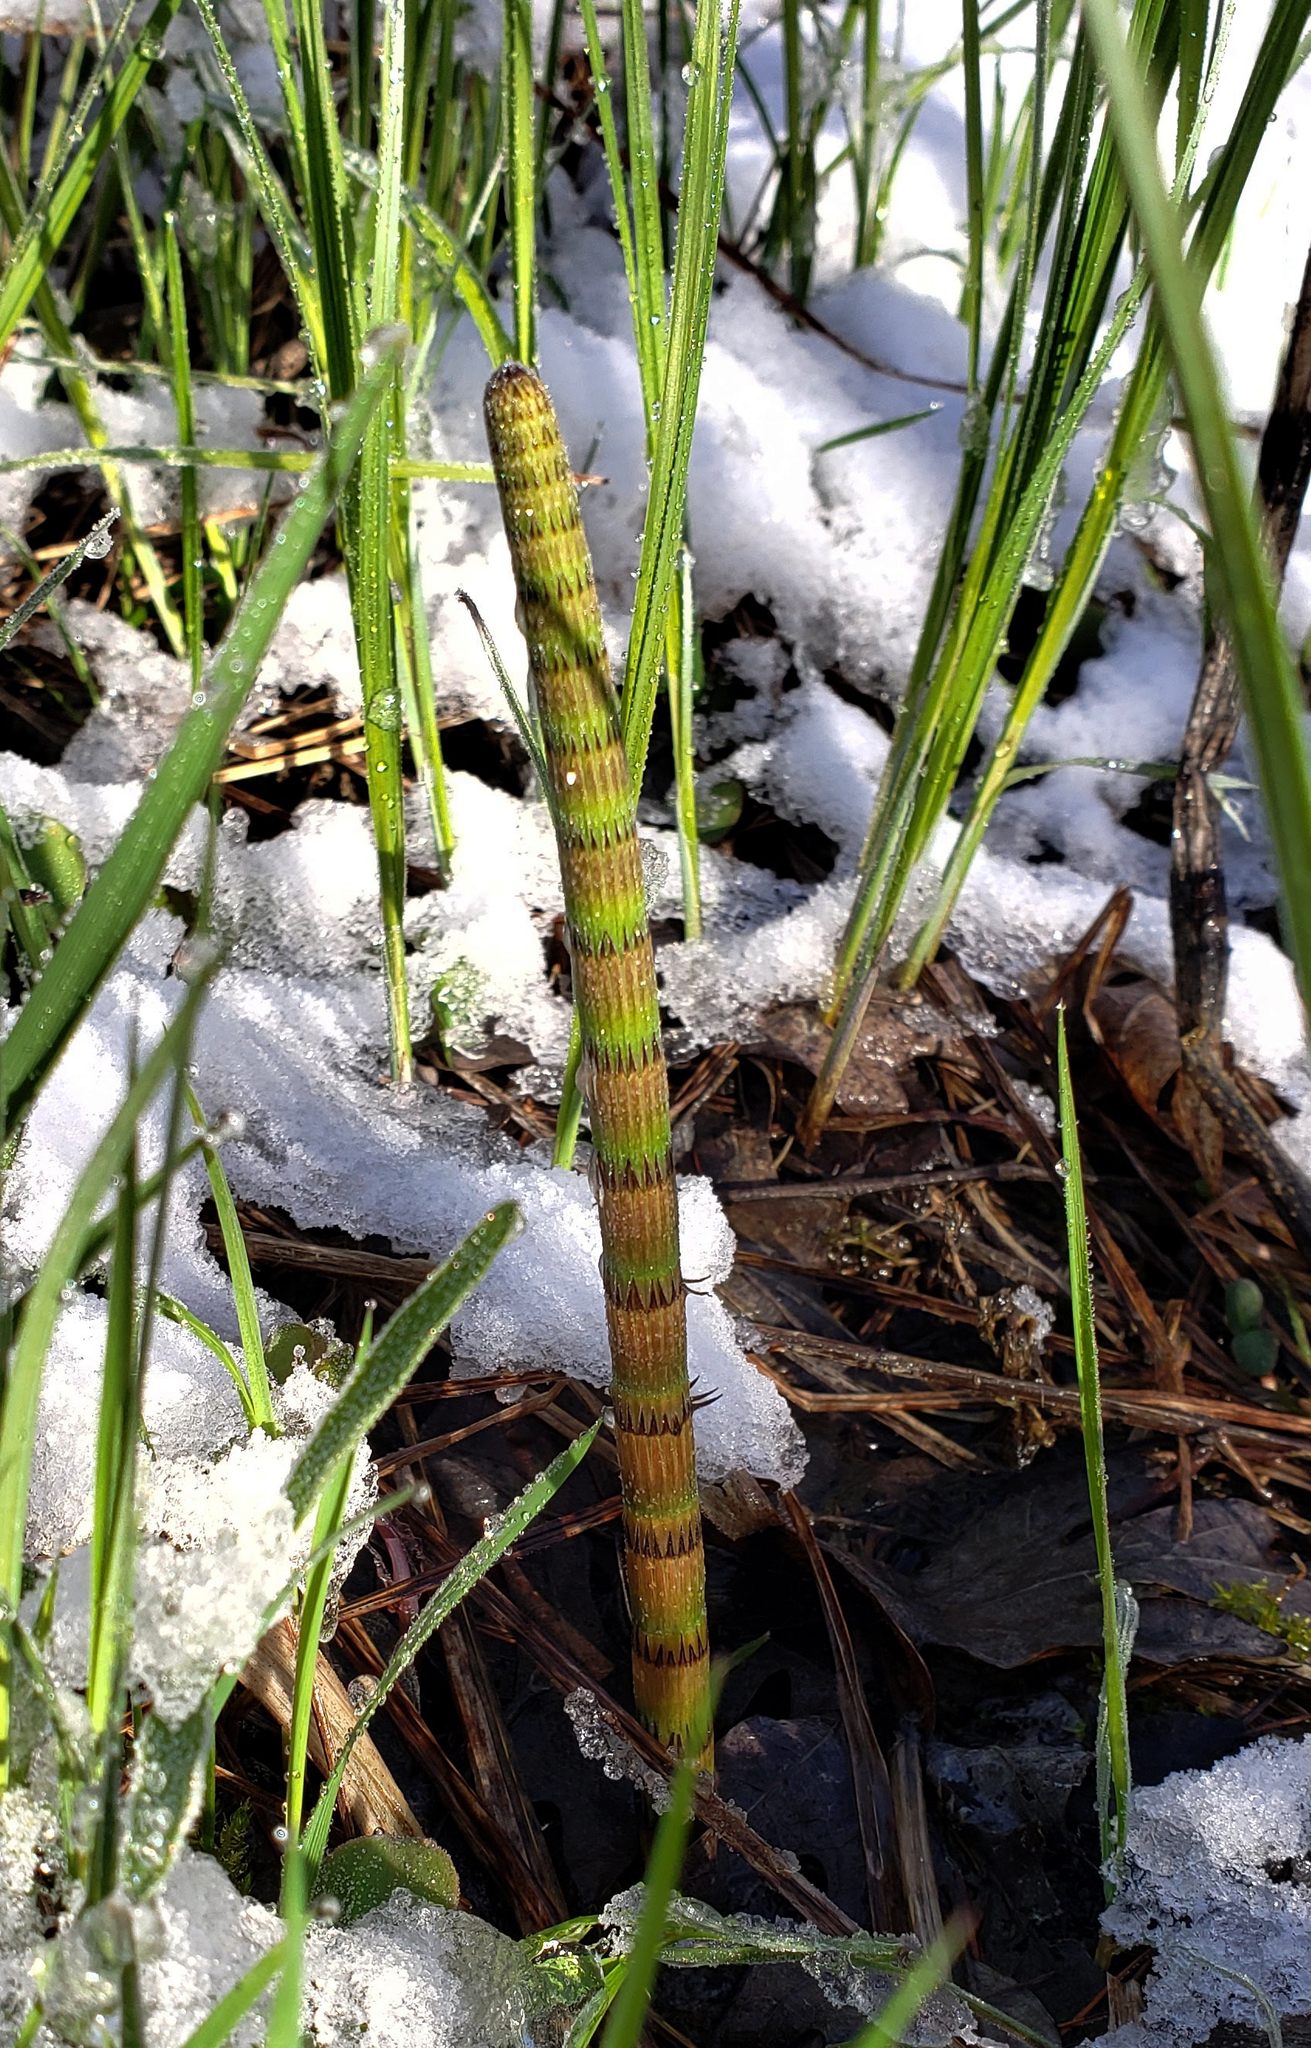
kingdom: Plantae
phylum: Tracheophyta
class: Polypodiopsida
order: Equisetales
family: Equisetaceae
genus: Equisetum
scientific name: Equisetum fluviatile
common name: Water horsetail
